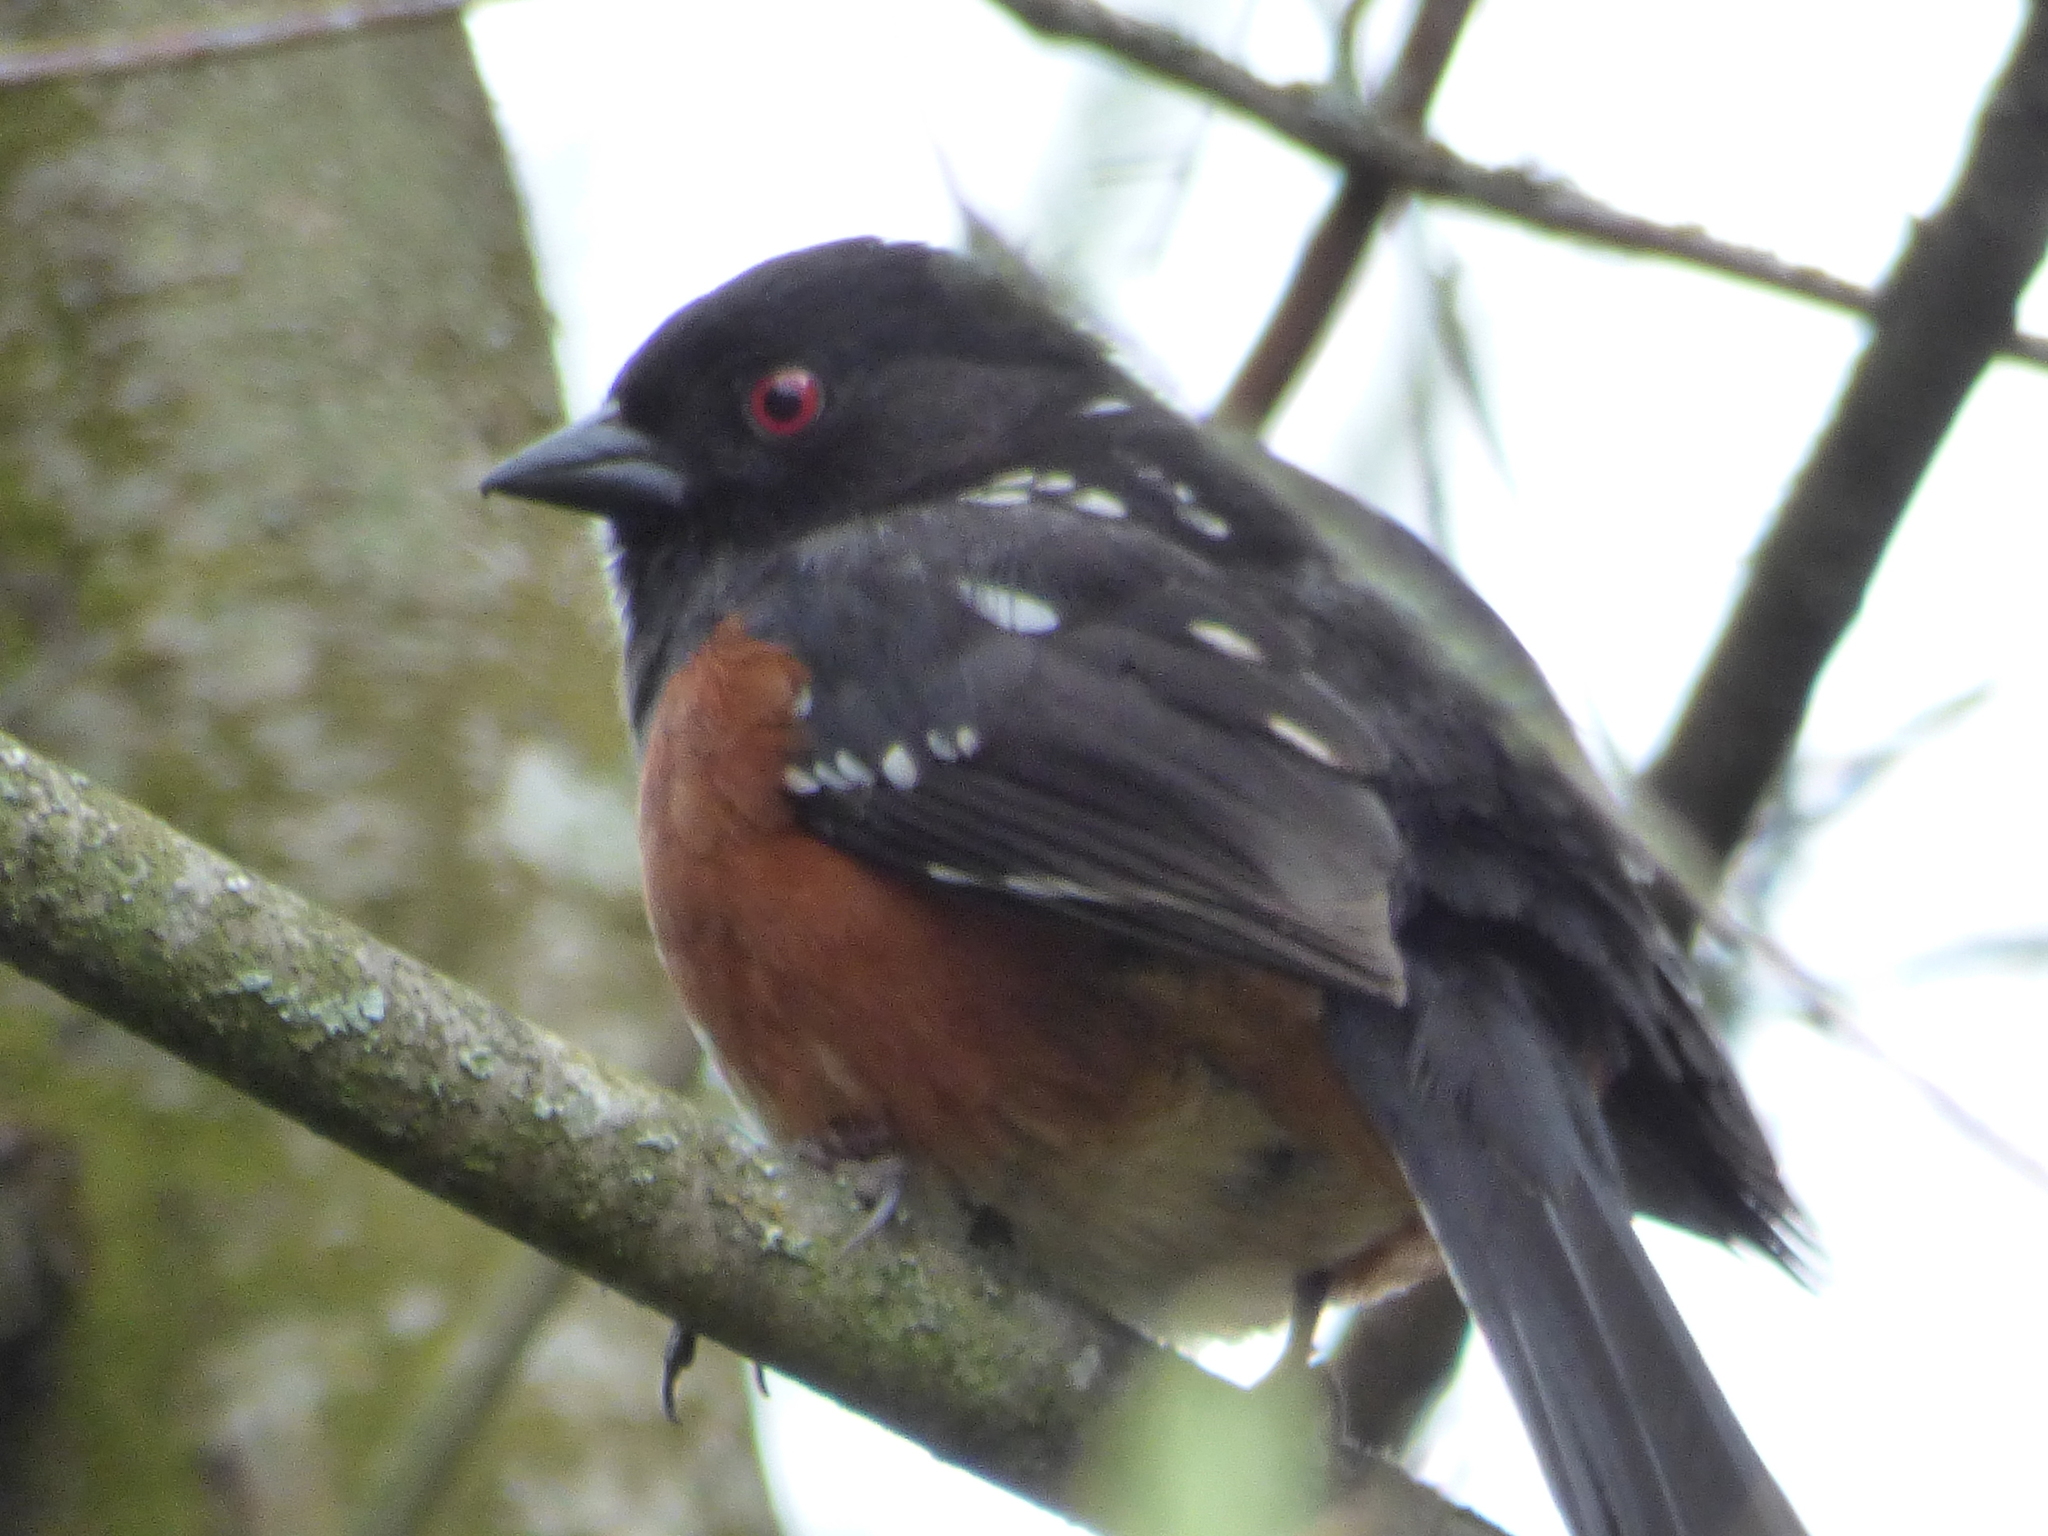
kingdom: Animalia
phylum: Chordata
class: Aves
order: Passeriformes
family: Passerellidae
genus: Pipilo
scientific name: Pipilo maculatus
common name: Spotted towhee
